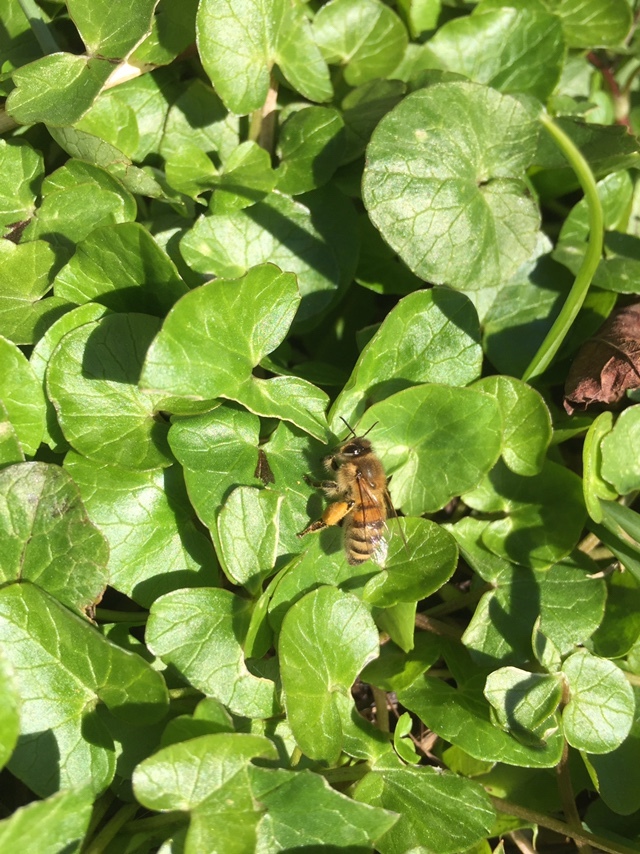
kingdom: Animalia
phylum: Arthropoda
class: Insecta
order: Hymenoptera
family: Apidae
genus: Apis
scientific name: Apis mellifera
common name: Honey bee
